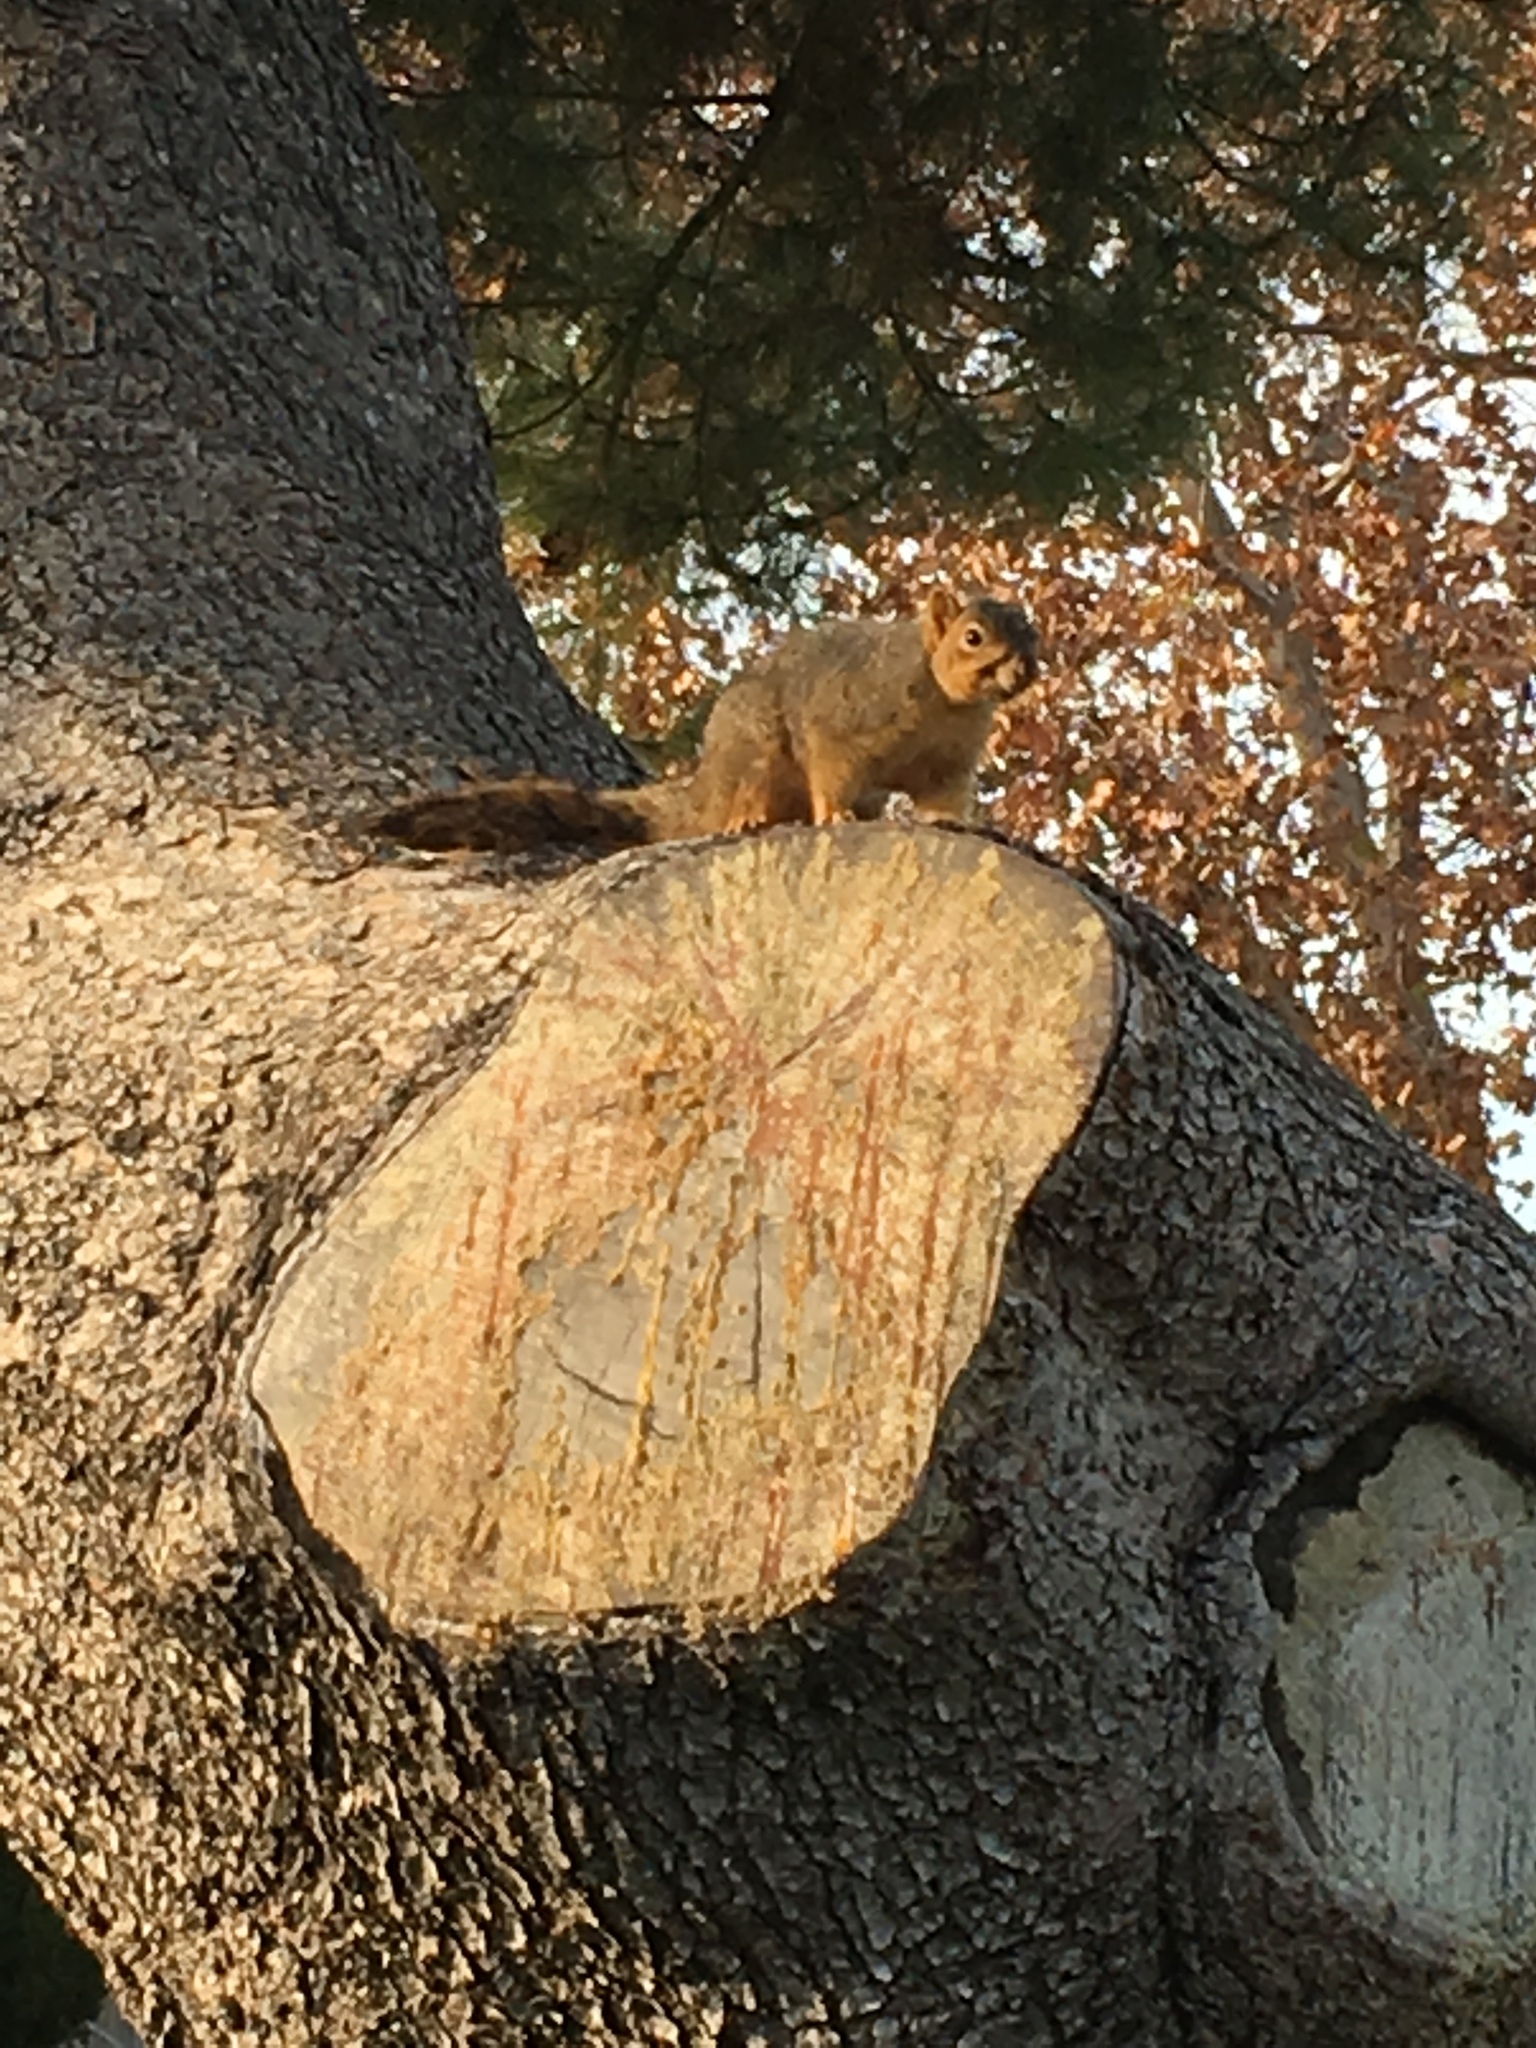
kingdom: Animalia
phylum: Chordata
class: Mammalia
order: Rodentia
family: Sciuridae
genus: Sciurus
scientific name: Sciurus niger
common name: Fox squirrel
